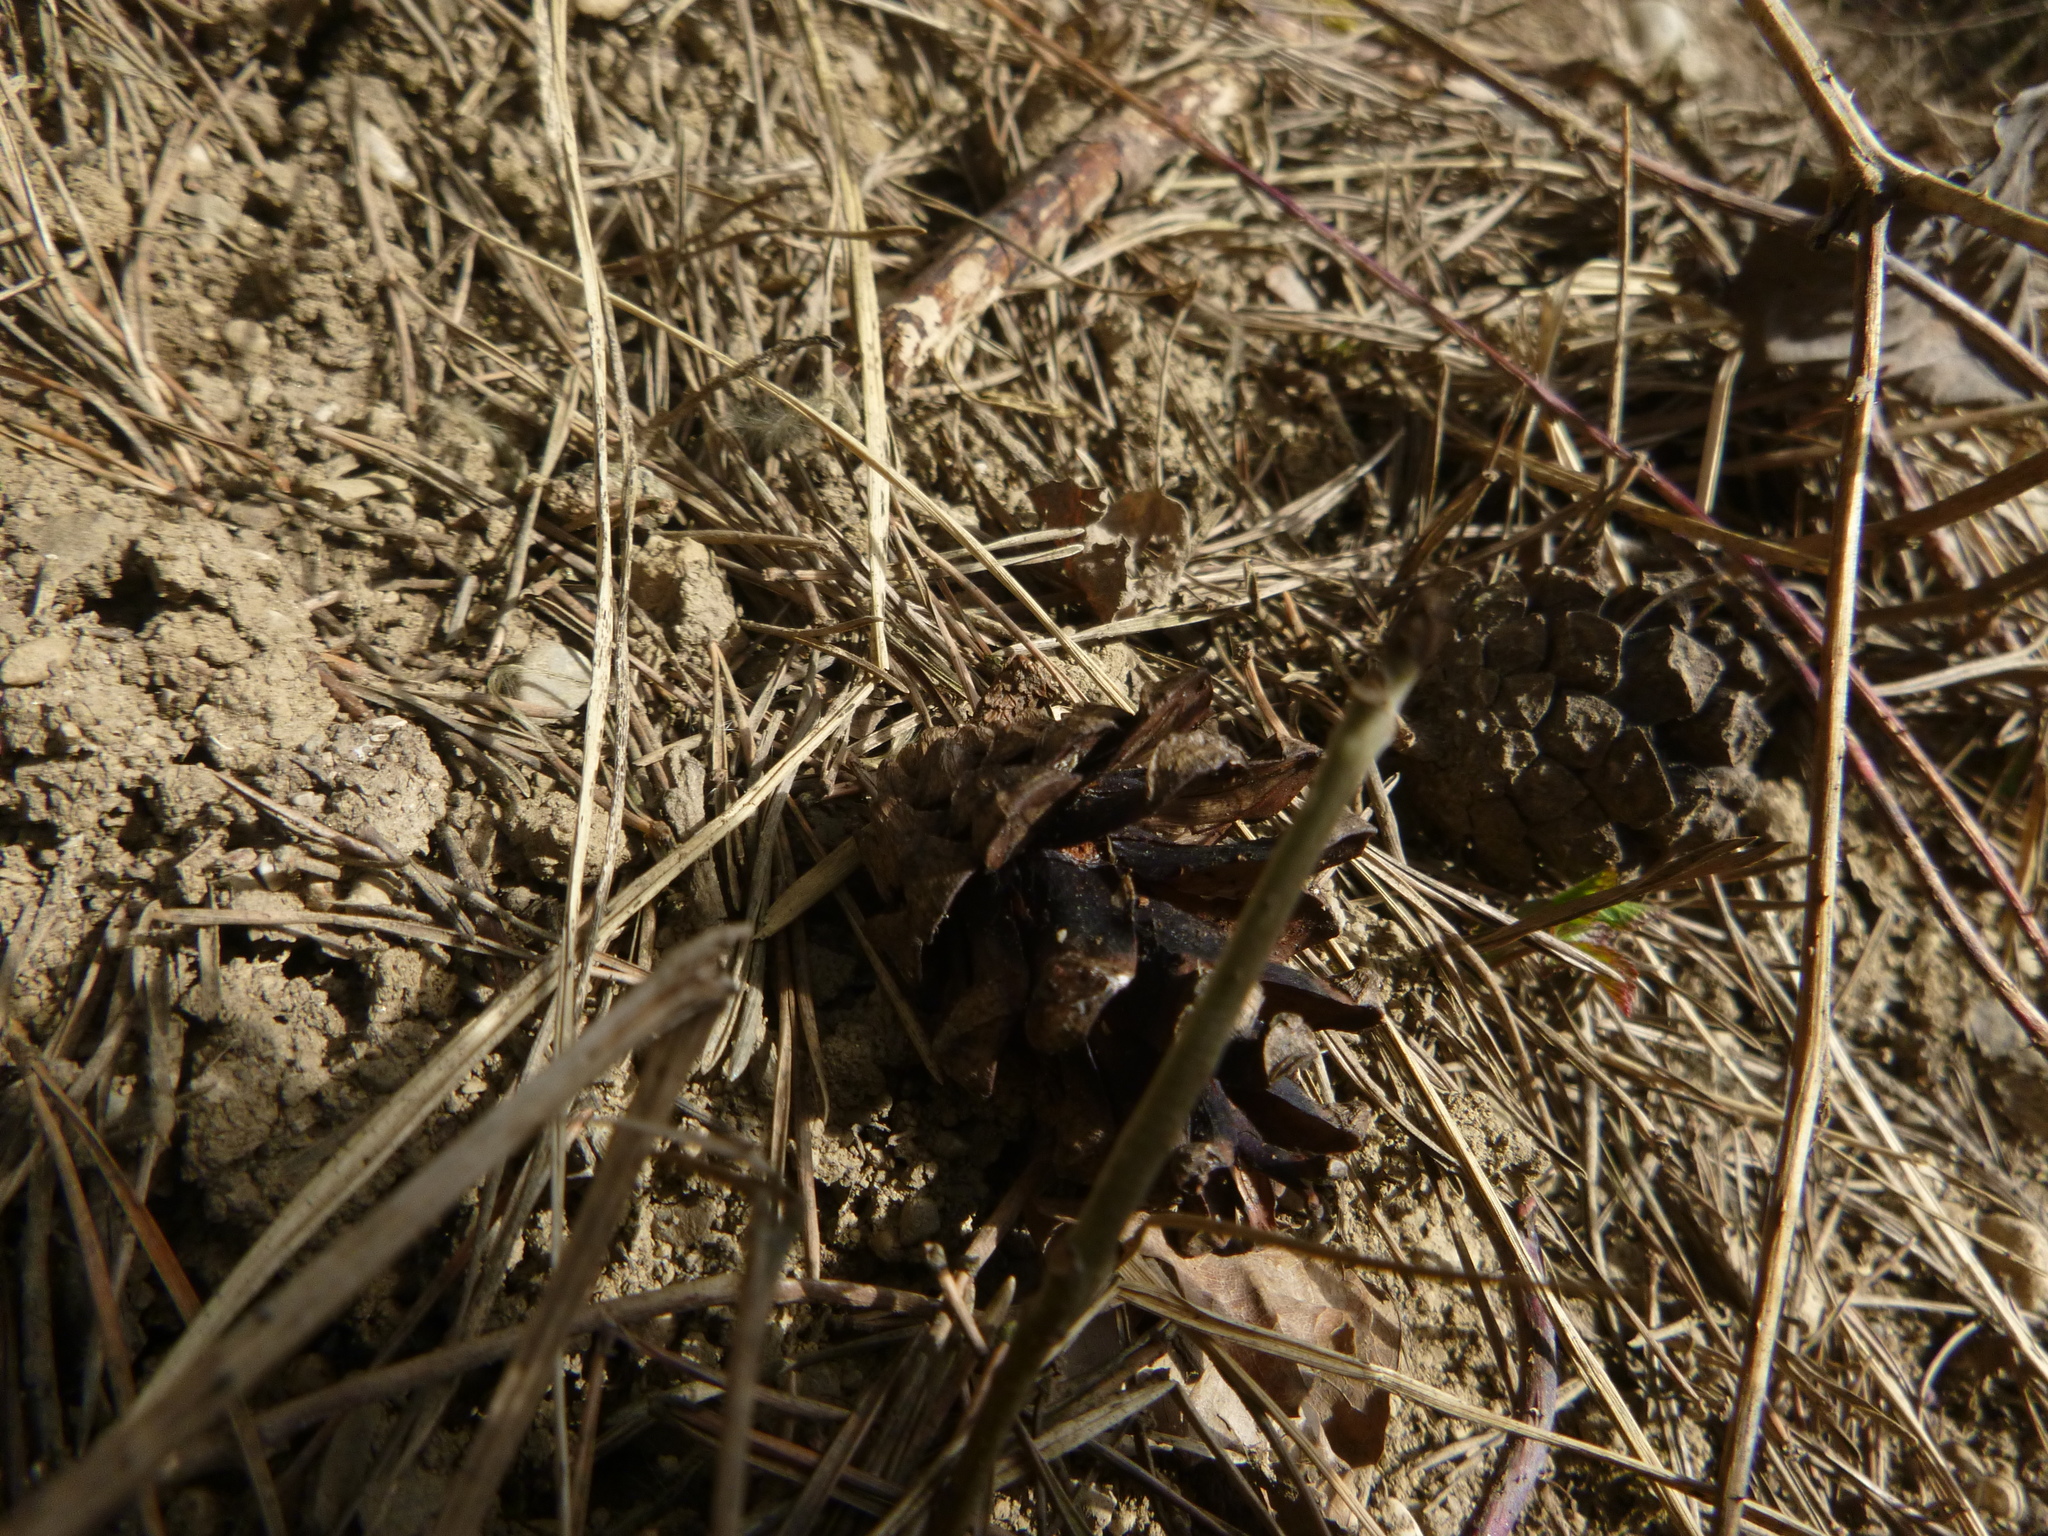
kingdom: Plantae
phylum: Tracheophyta
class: Pinopsida
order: Pinales
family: Pinaceae
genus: Pinus
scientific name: Pinus sylvestris
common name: Scots pine
